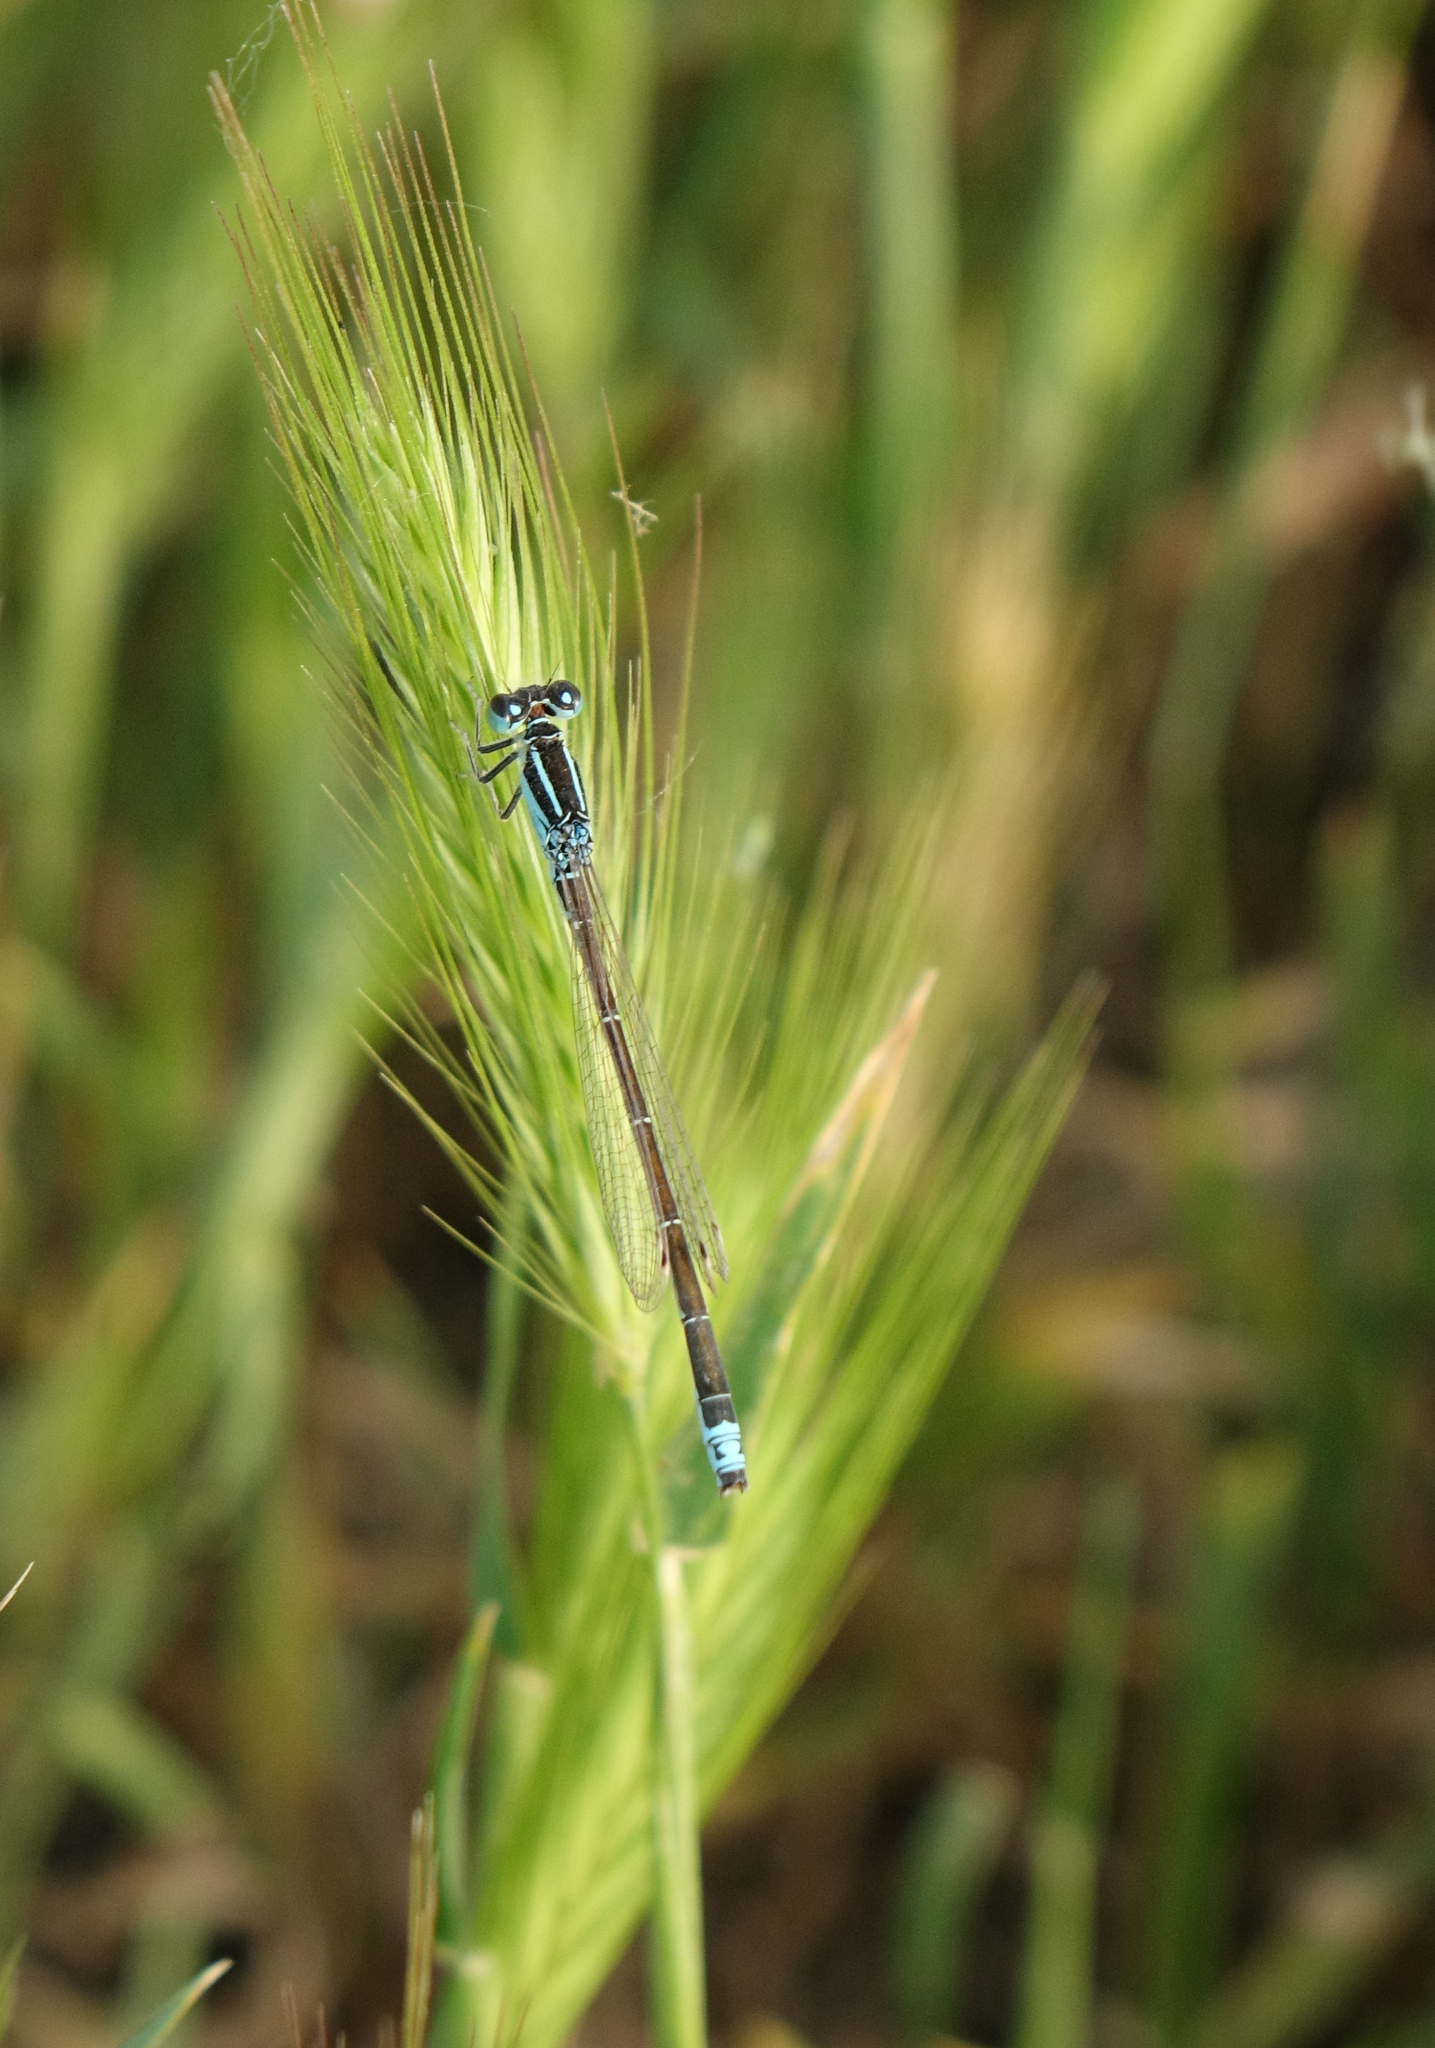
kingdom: Animalia
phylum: Arthropoda
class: Insecta
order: Odonata
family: Coenagrionidae
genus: Ischnura
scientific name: Ischnura pumilio
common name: Scarce blue-tailed damselfly
